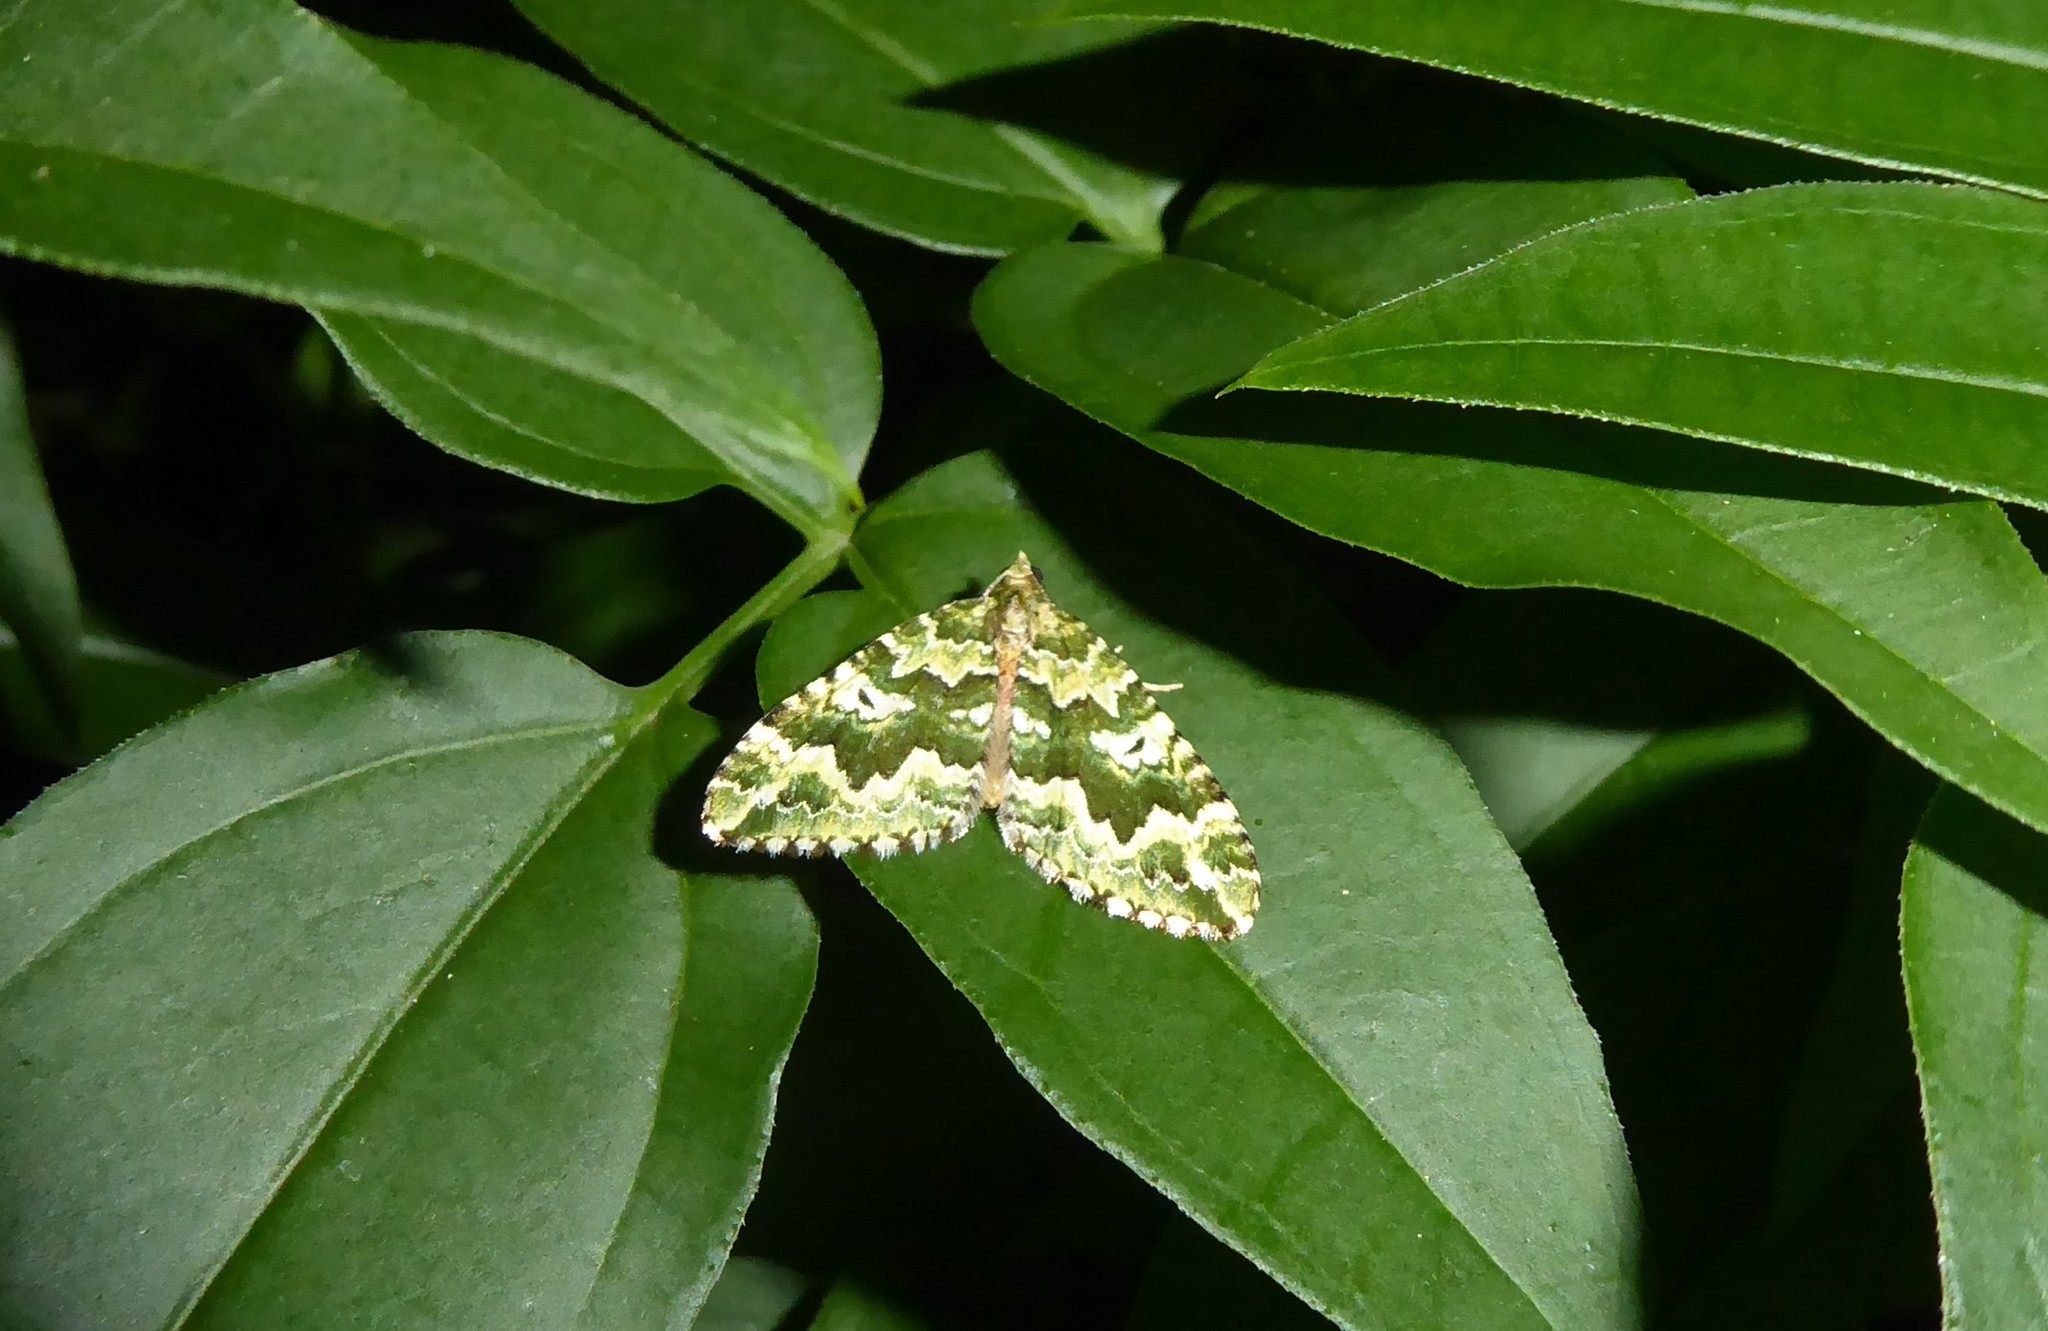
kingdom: Animalia
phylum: Arthropoda
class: Insecta
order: Lepidoptera
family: Geometridae
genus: Asaphodes
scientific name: Asaphodes beata
